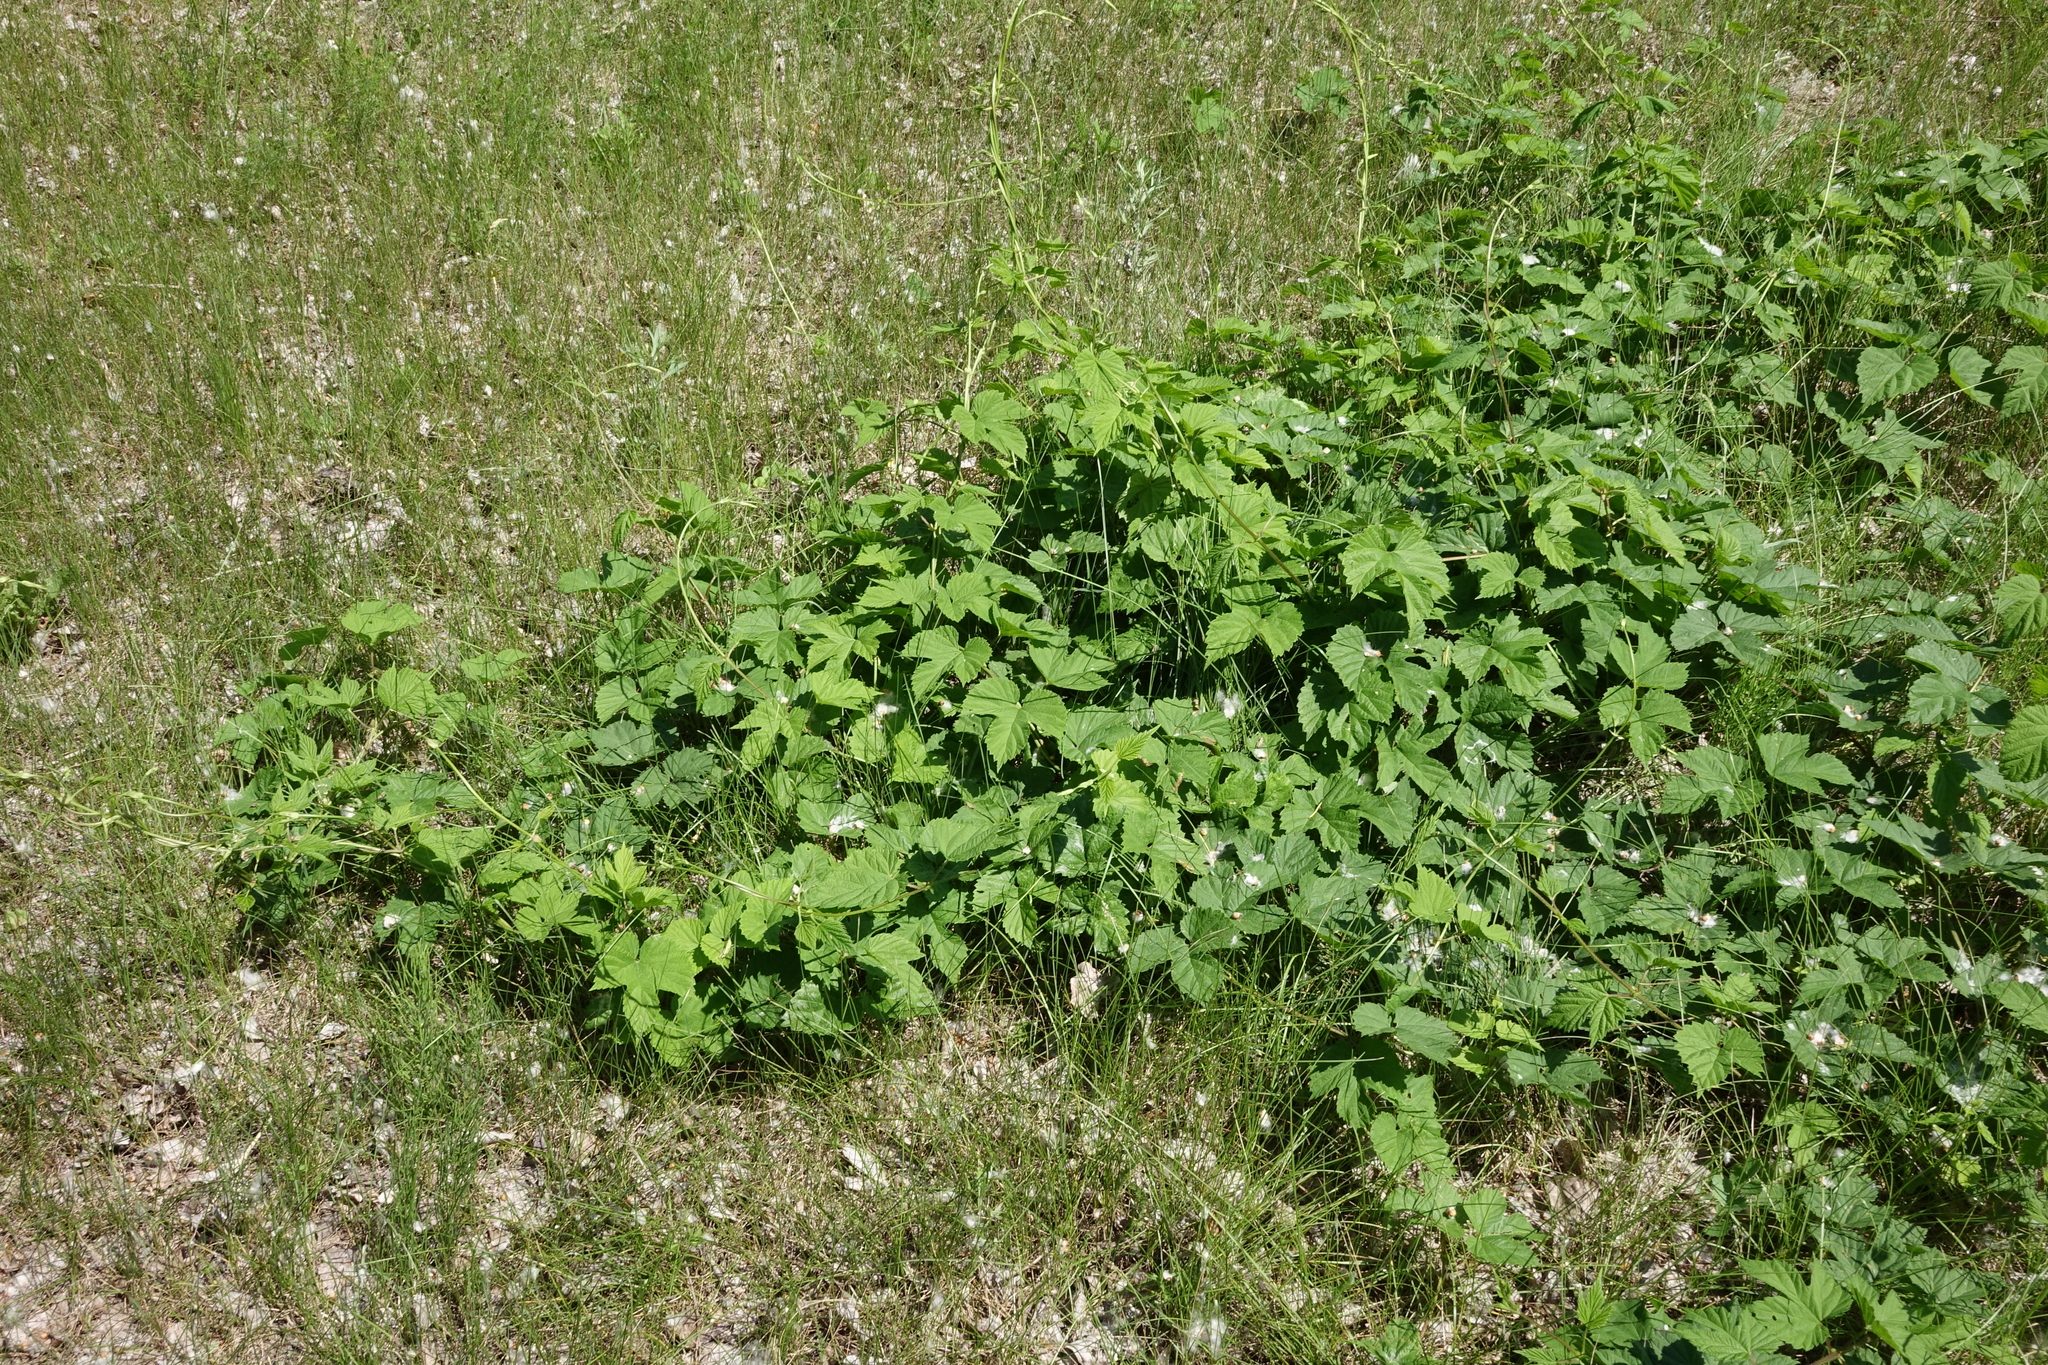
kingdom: Plantae
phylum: Tracheophyta
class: Magnoliopsida
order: Rosales
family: Cannabaceae
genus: Humulus
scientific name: Humulus lupulus
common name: Hop
